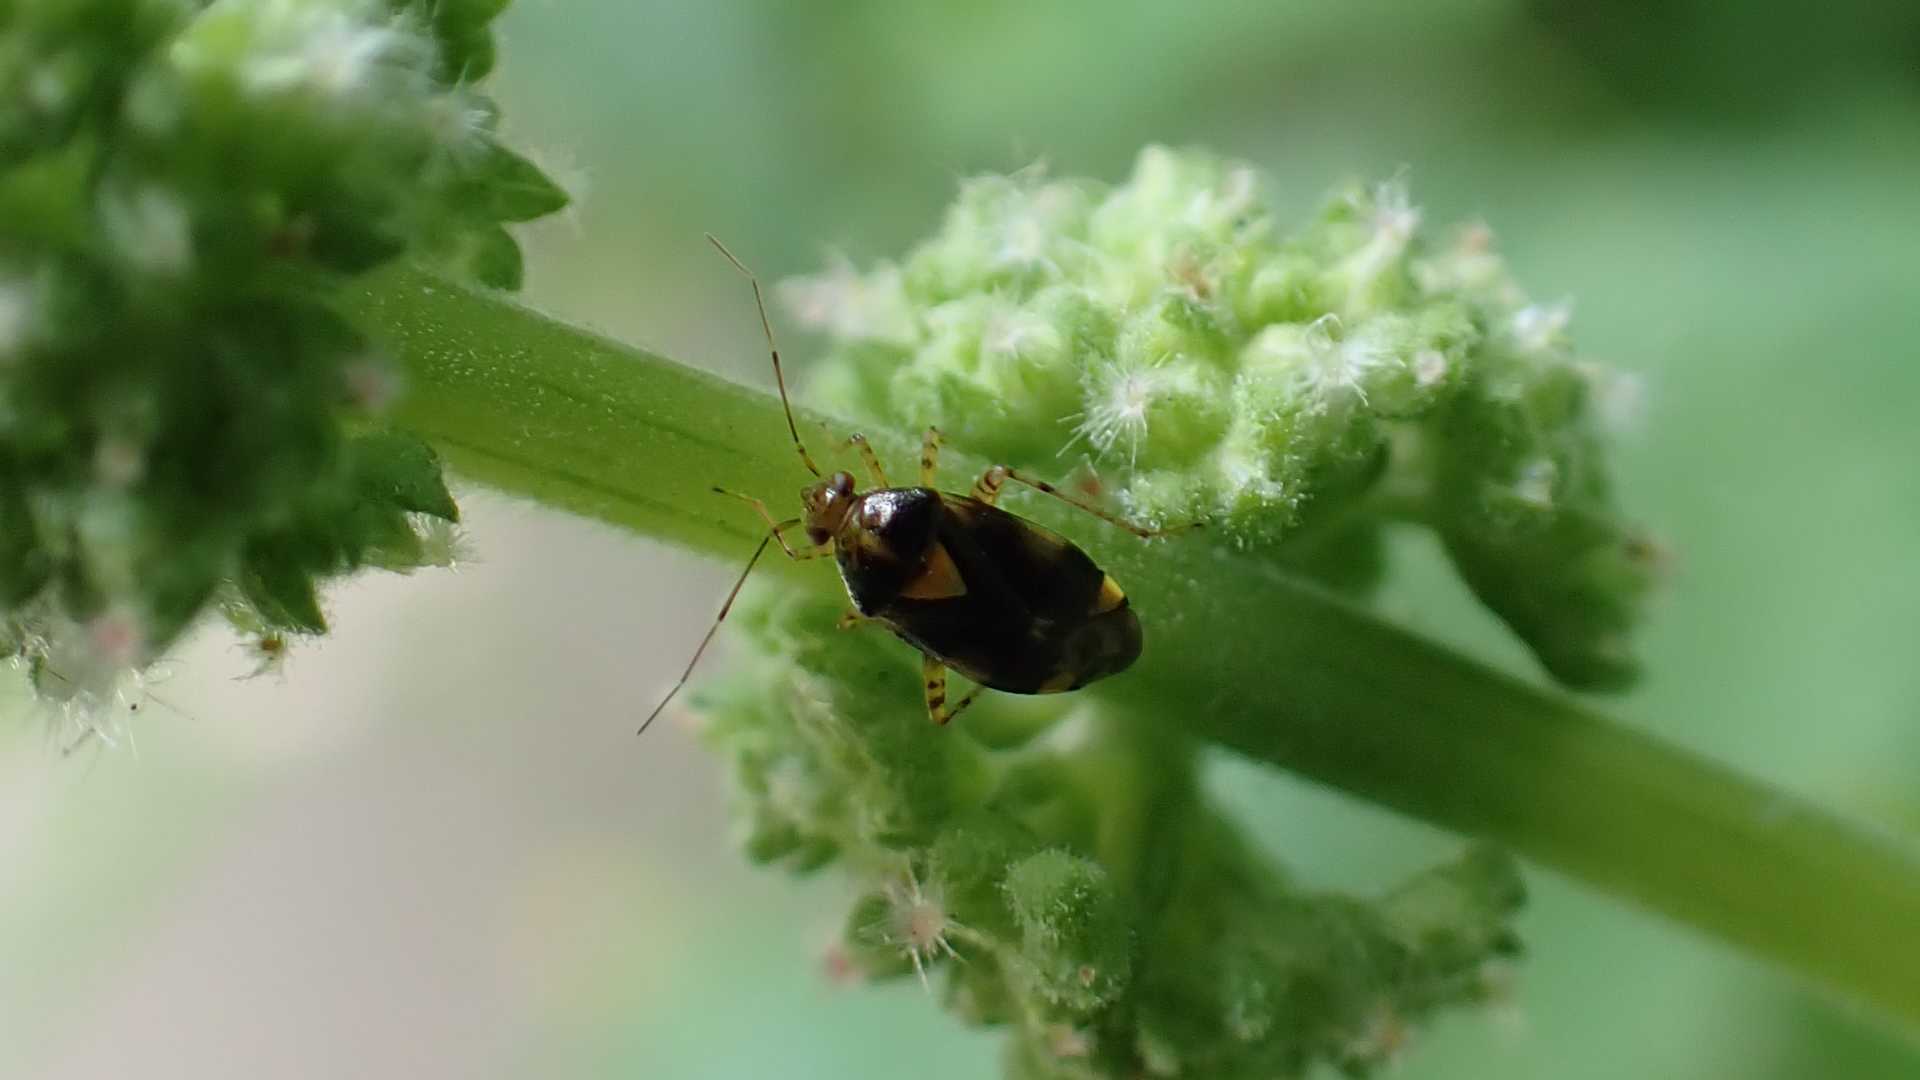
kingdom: Animalia
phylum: Arthropoda
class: Insecta
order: Hemiptera
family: Miridae
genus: Liocoris
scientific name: Liocoris tripustulatus
